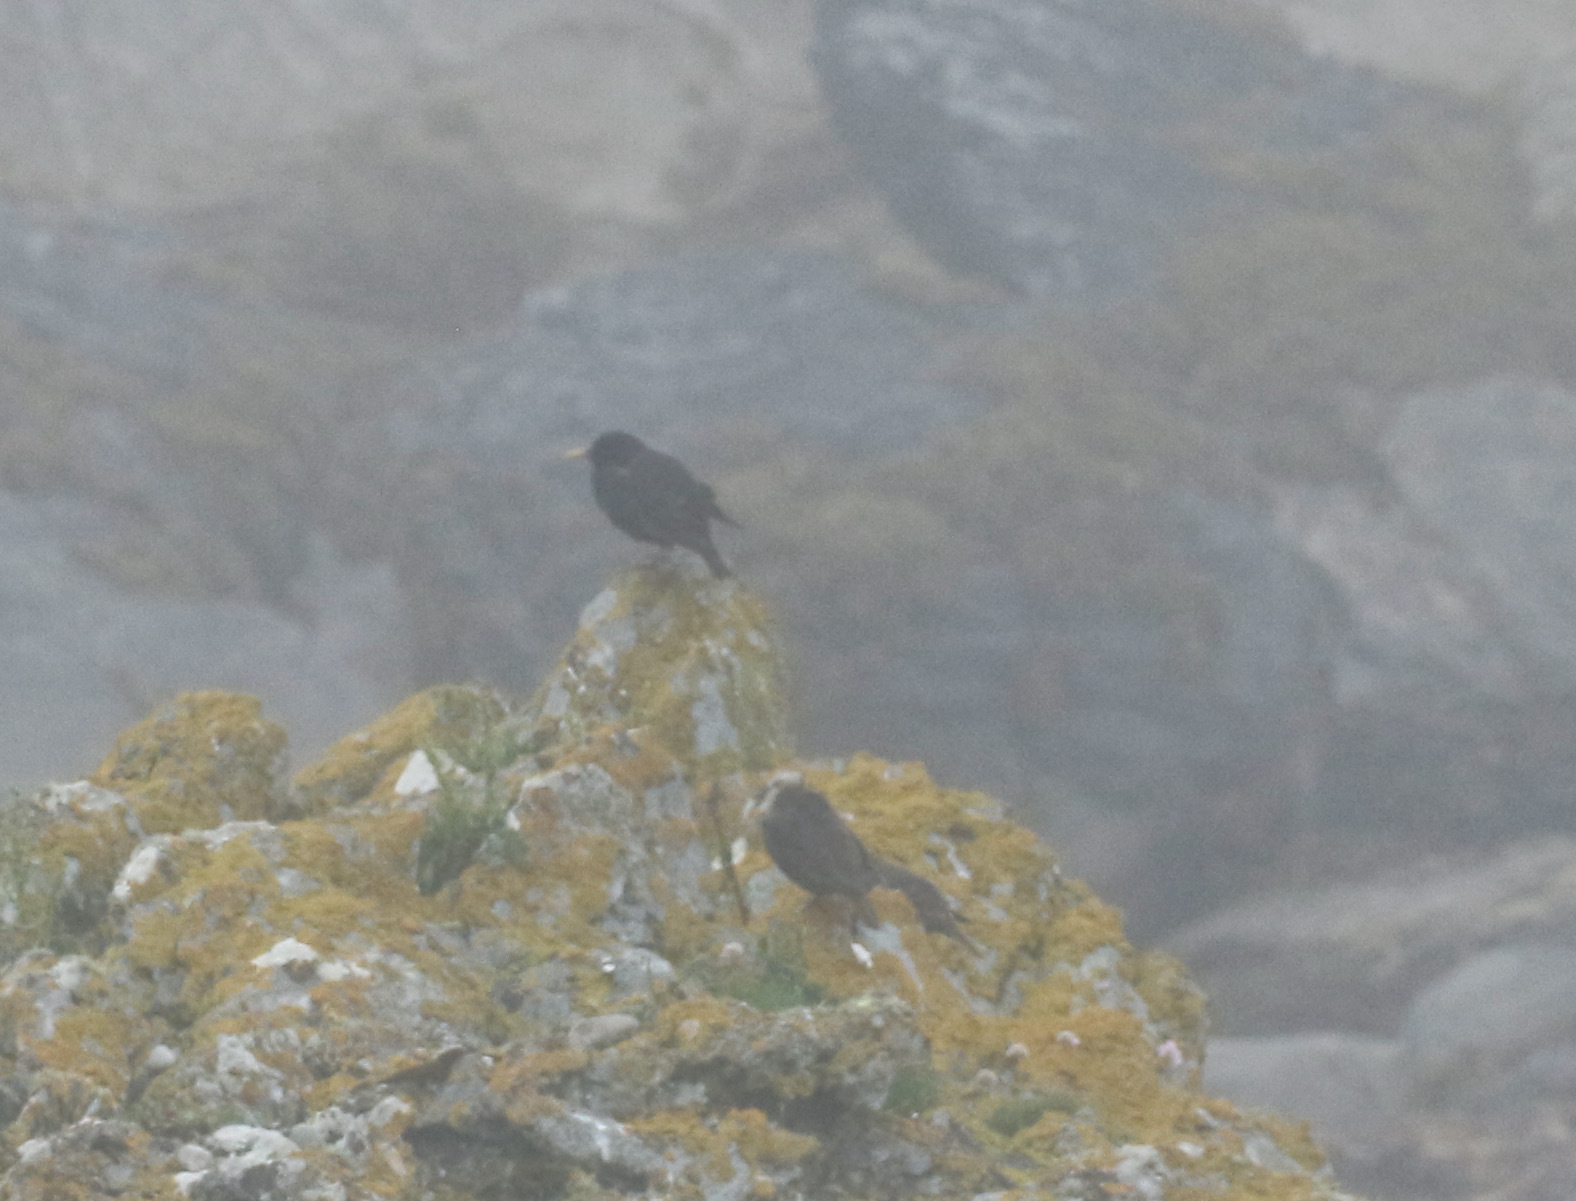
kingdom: Animalia
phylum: Chordata
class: Aves
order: Passeriformes
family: Sturnidae
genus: Sturnus
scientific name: Sturnus vulgaris
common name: Common starling
